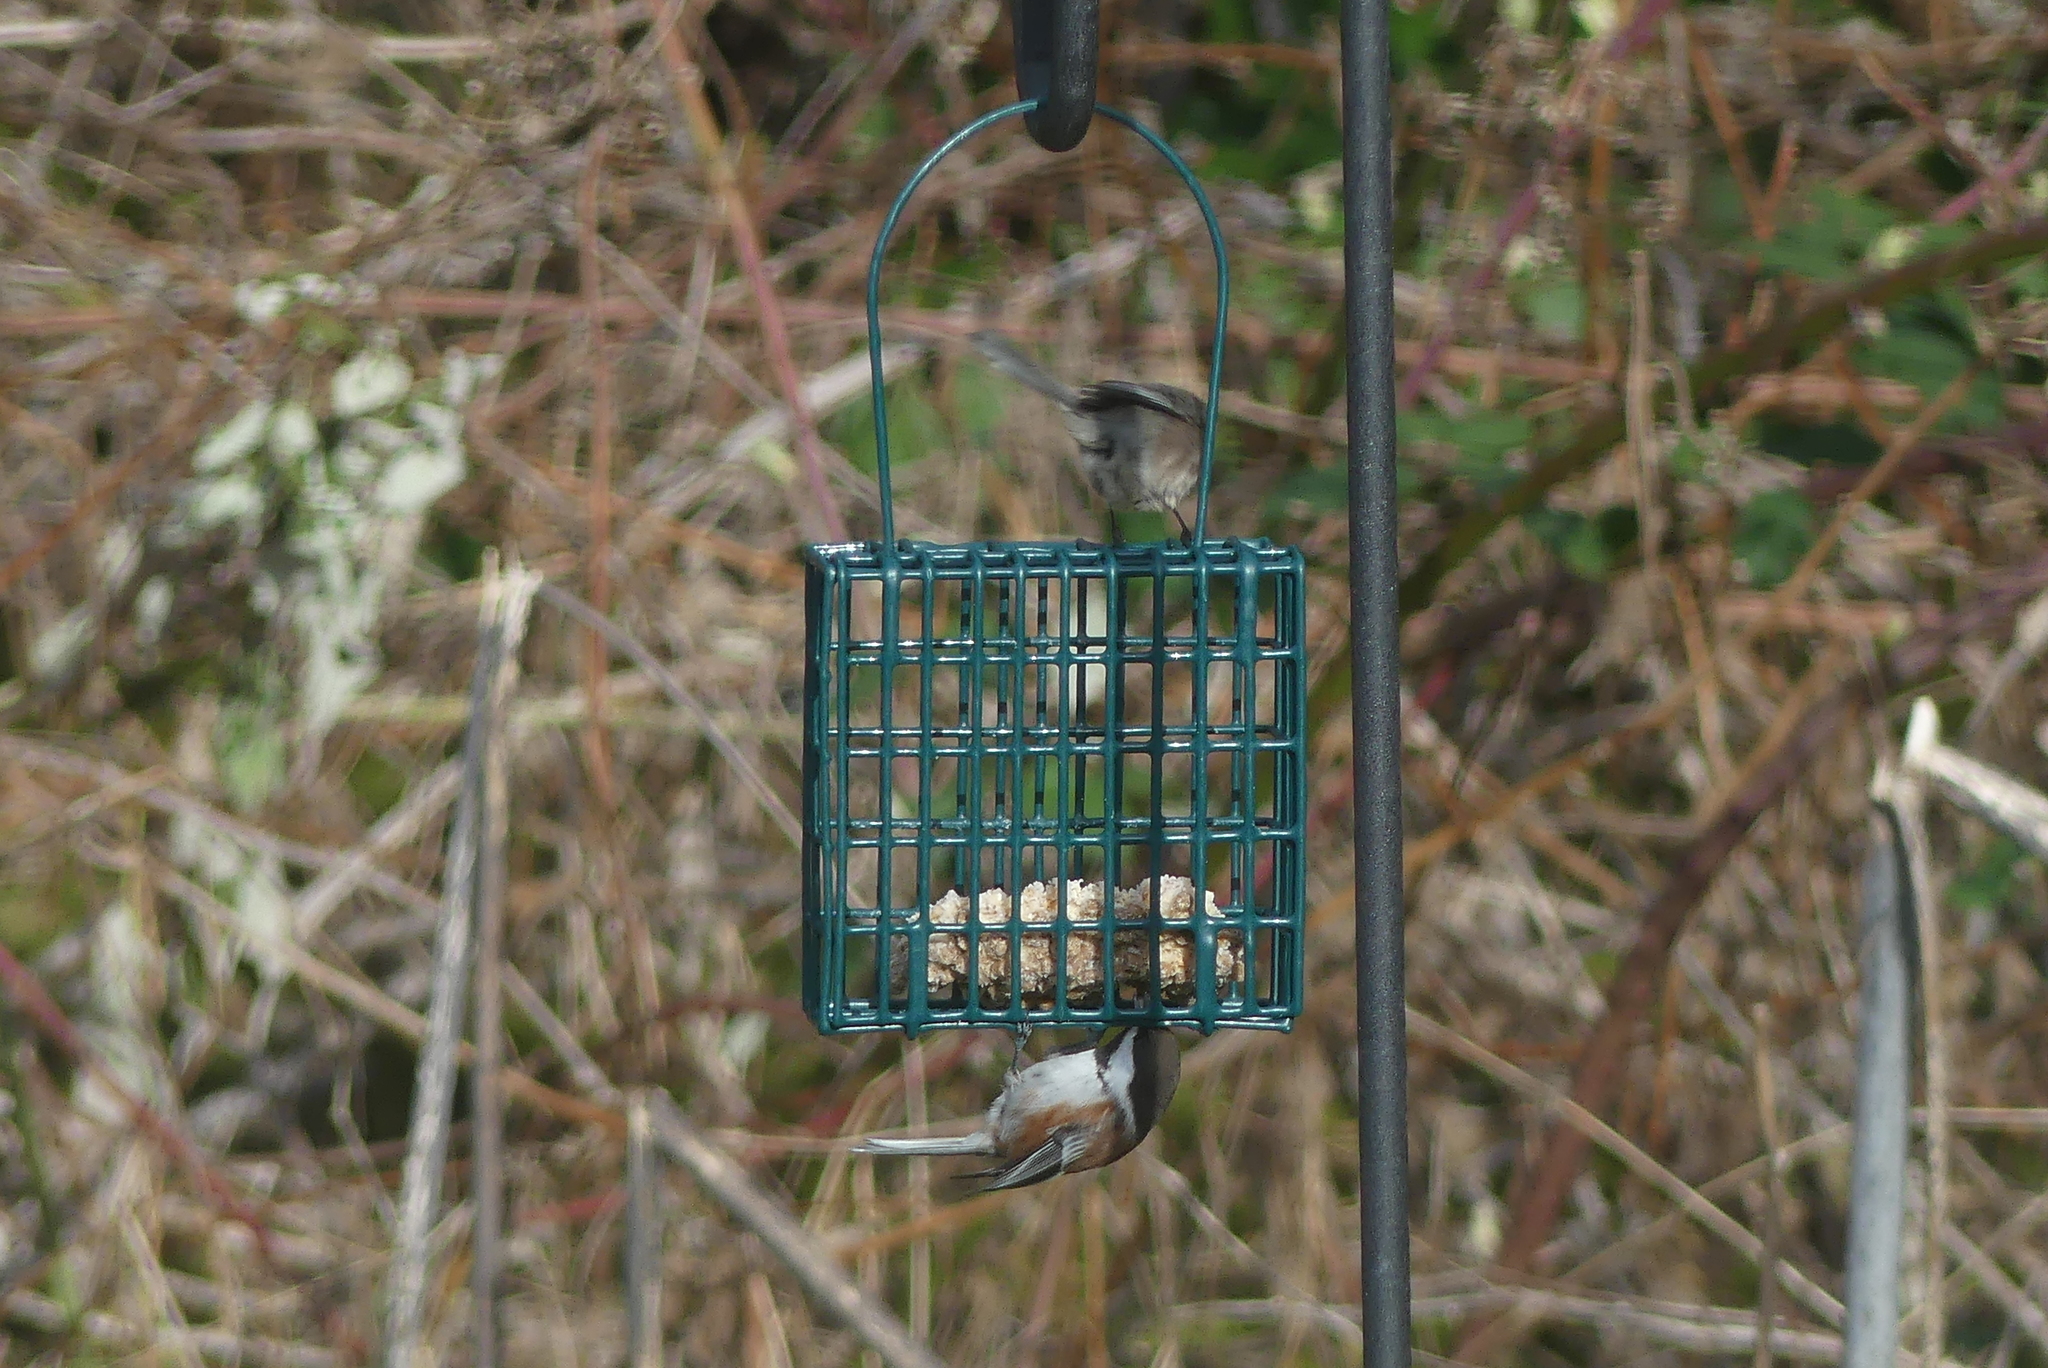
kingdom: Animalia
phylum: Chordata
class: Aves
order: Passeriformes
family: Paridae
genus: Poecile
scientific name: Poecile rufescens
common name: Chestnut-backed chickadee
